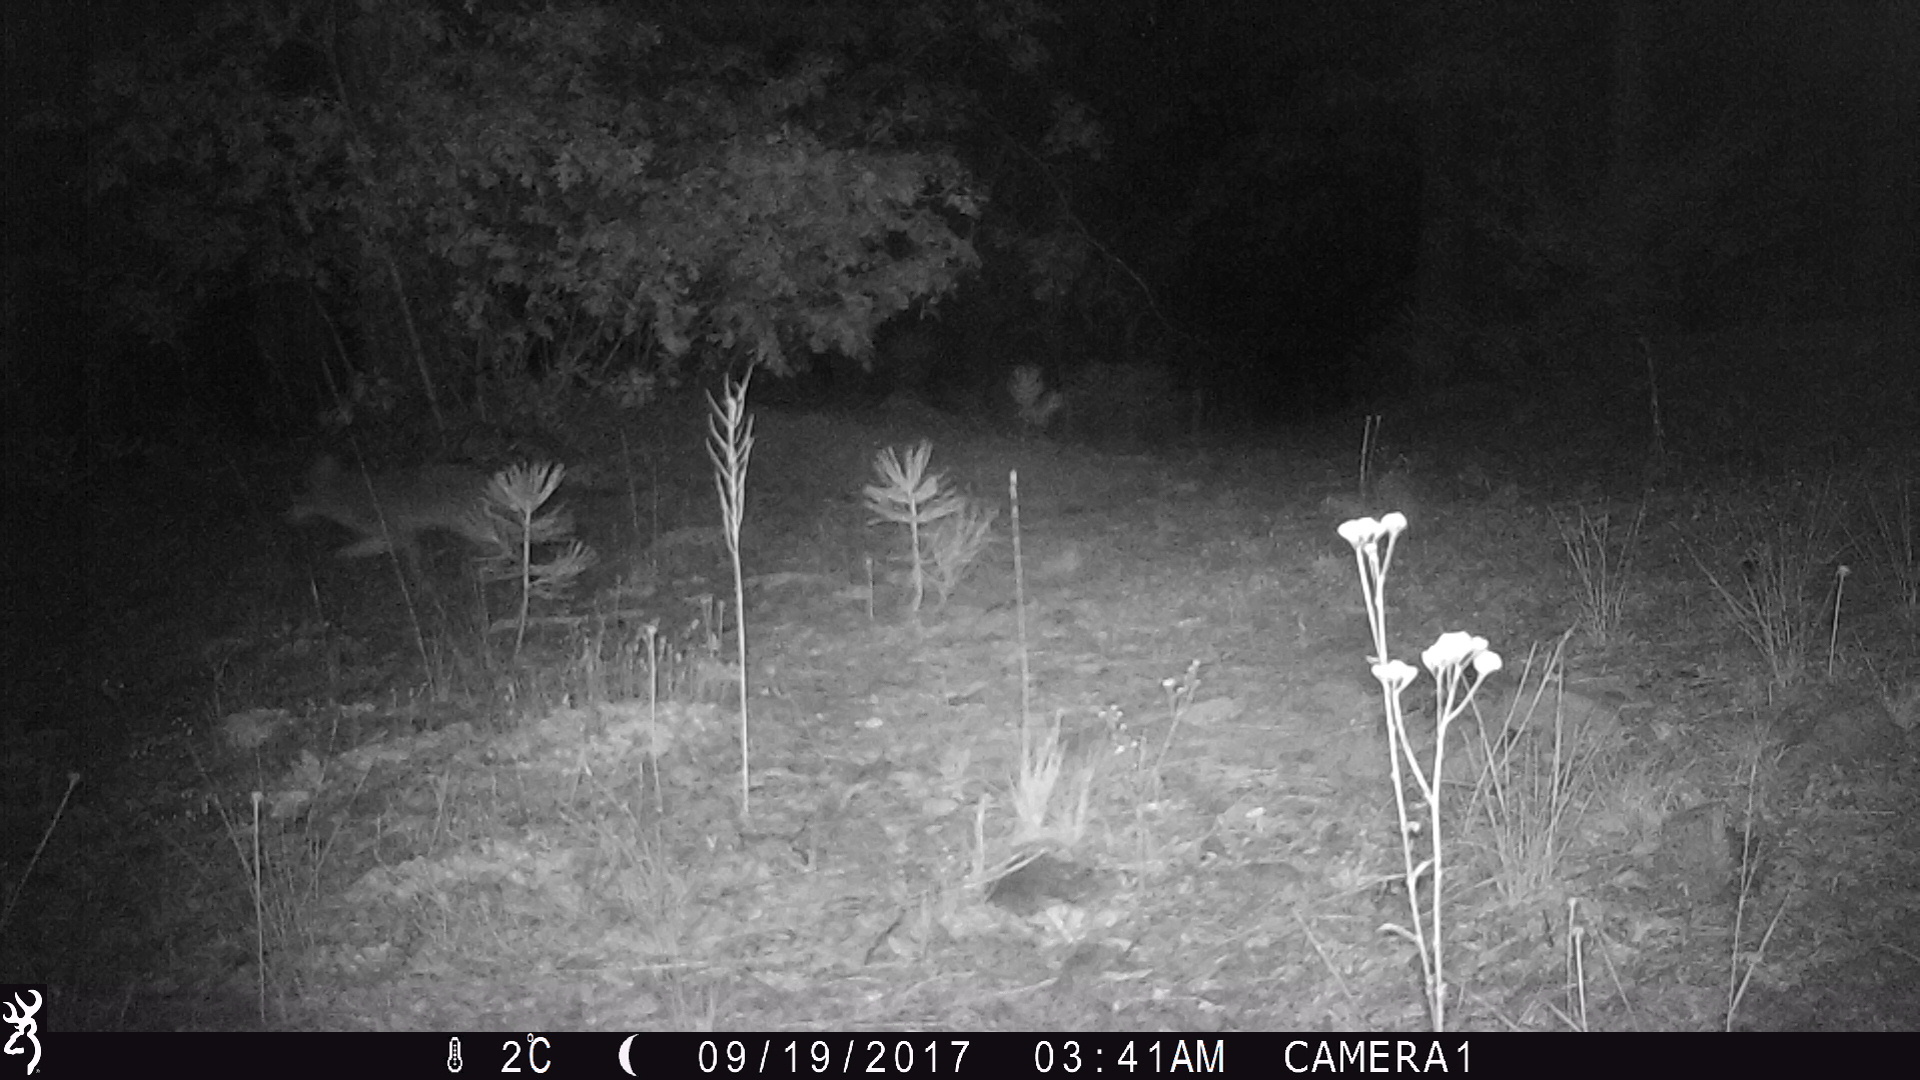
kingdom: Animalia
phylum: Chordata
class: Mammalia
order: Carnivora
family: Canidae
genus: Canis
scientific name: Canis latrans
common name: Coyote
